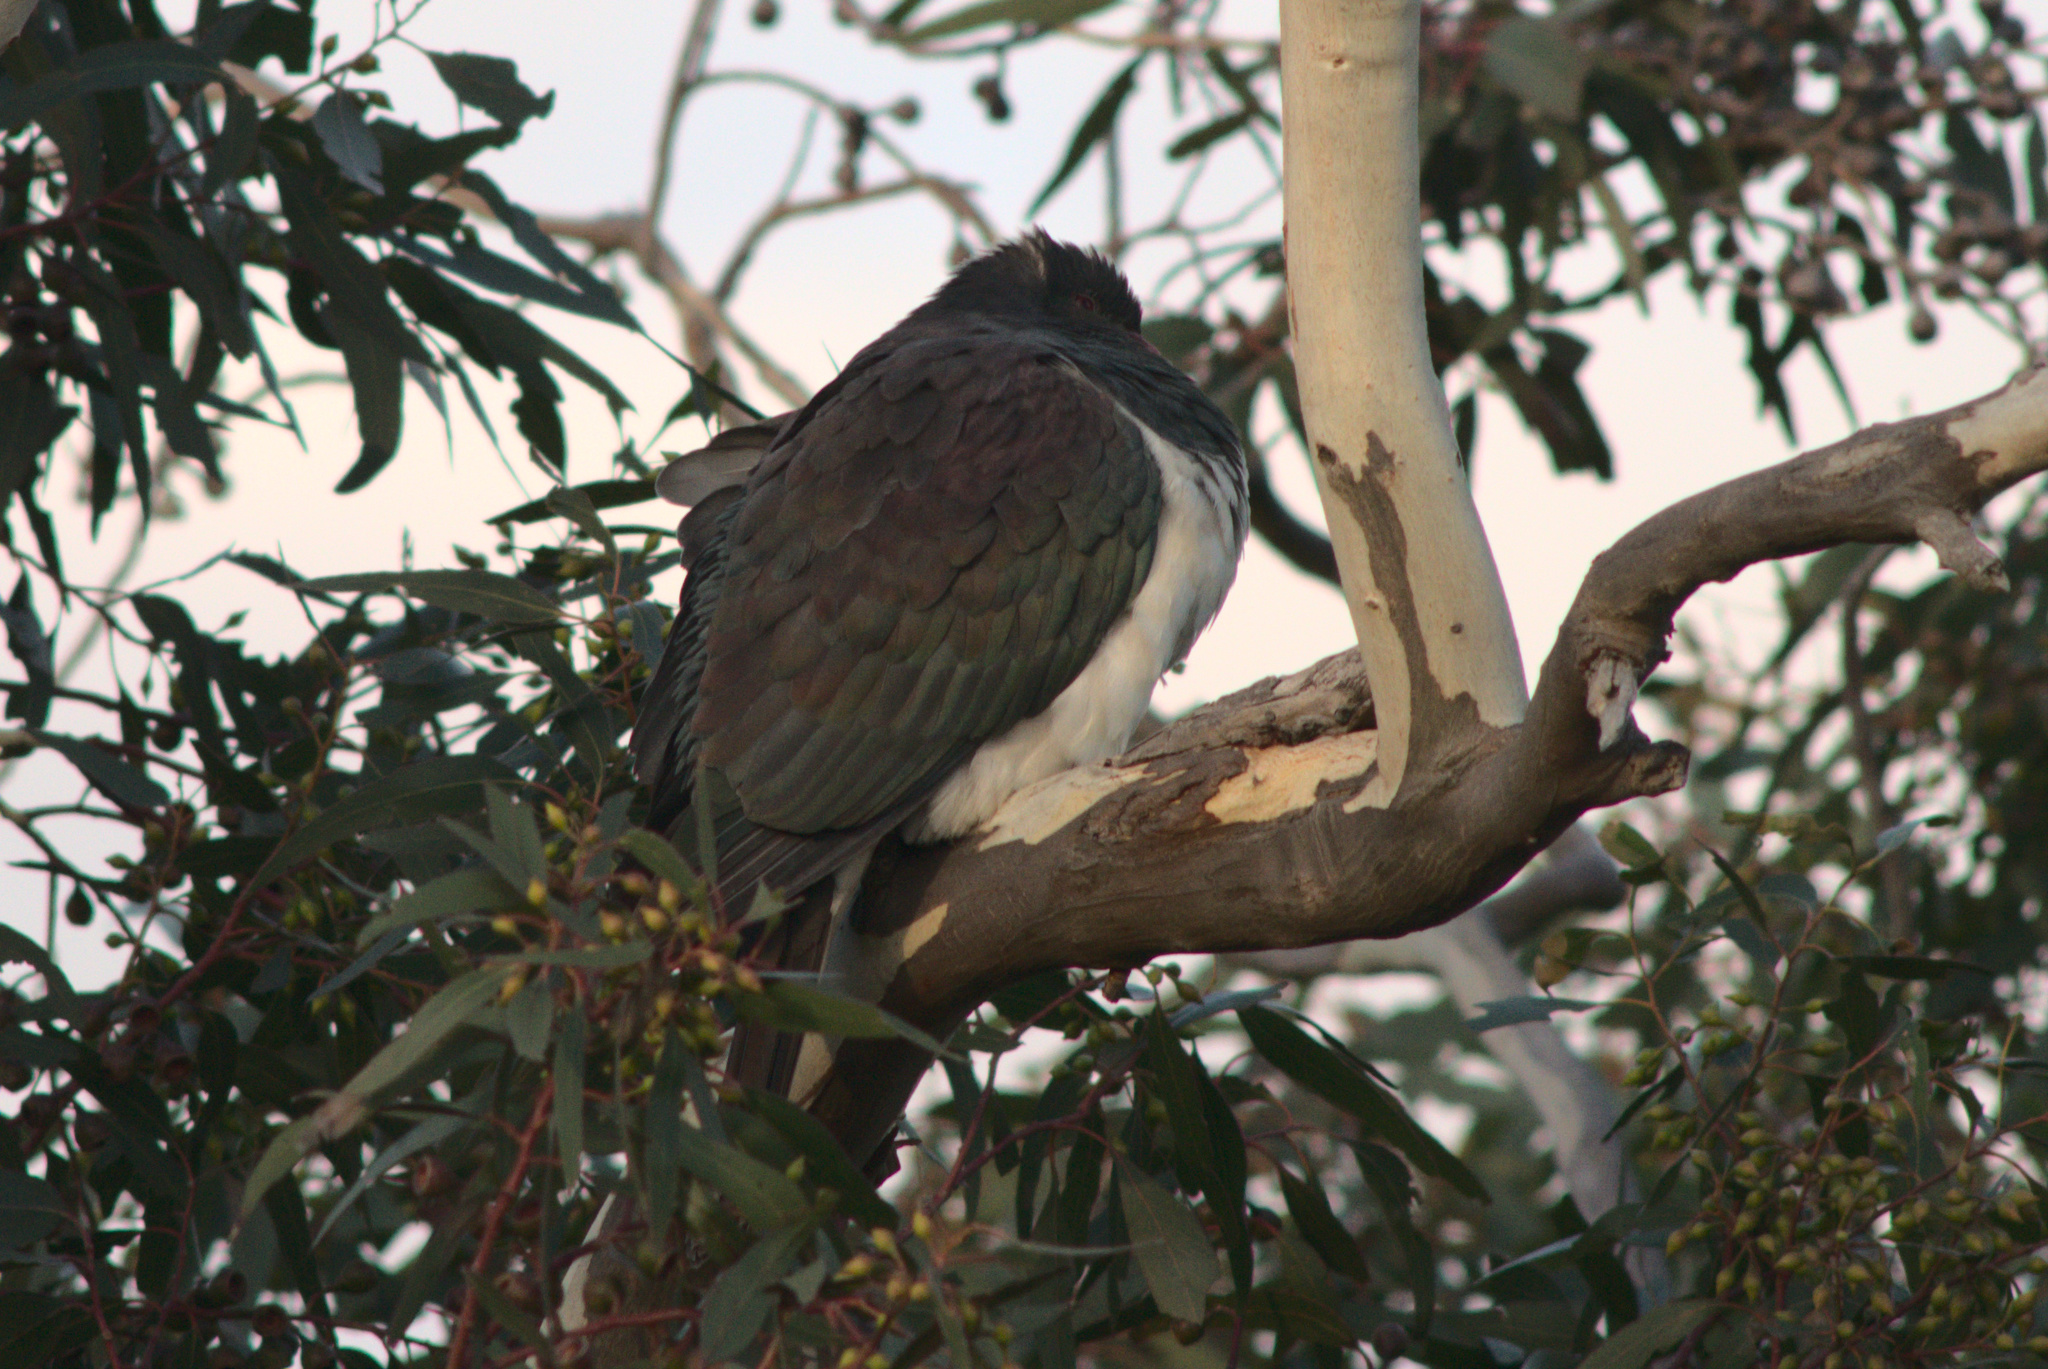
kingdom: Animalia
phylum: Chordata
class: Aves
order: Columbiformes
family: Columbidae
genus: Hemiphaga
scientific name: Hemiphaga novaeseelandiae
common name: New zealand pigeon
